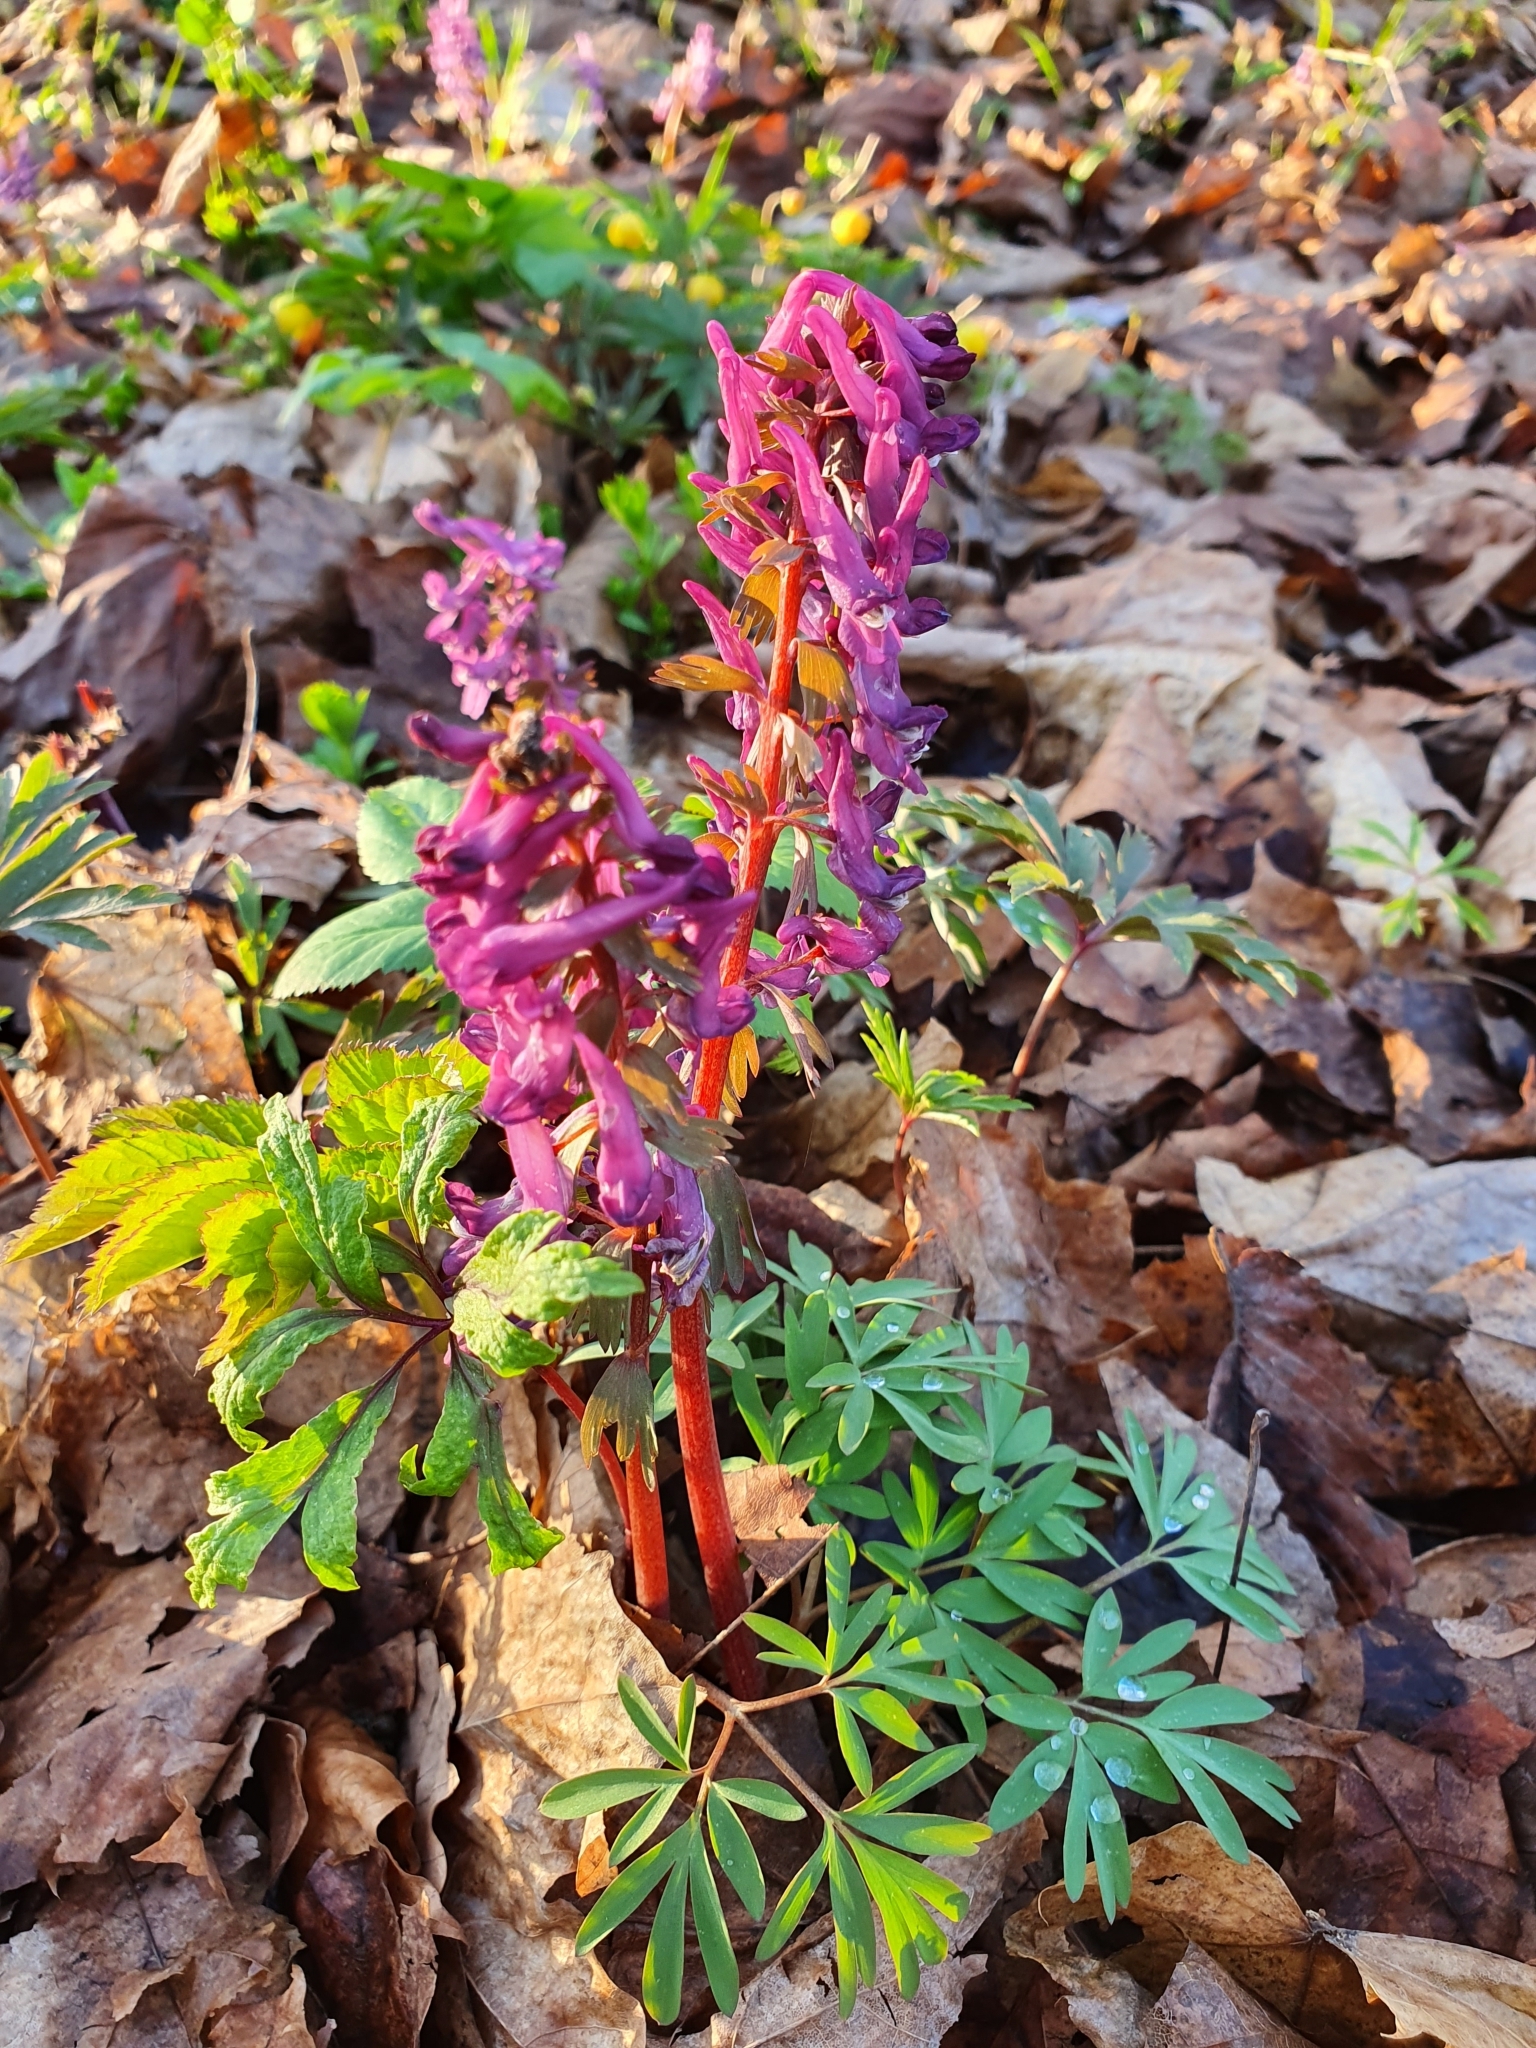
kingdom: Plantae
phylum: Tracheophyta
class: Magnoliopsida
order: Ranunculales
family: Papaveraceae
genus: Corydalis
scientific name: Corydalis solida
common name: Bird-in-a-bush
